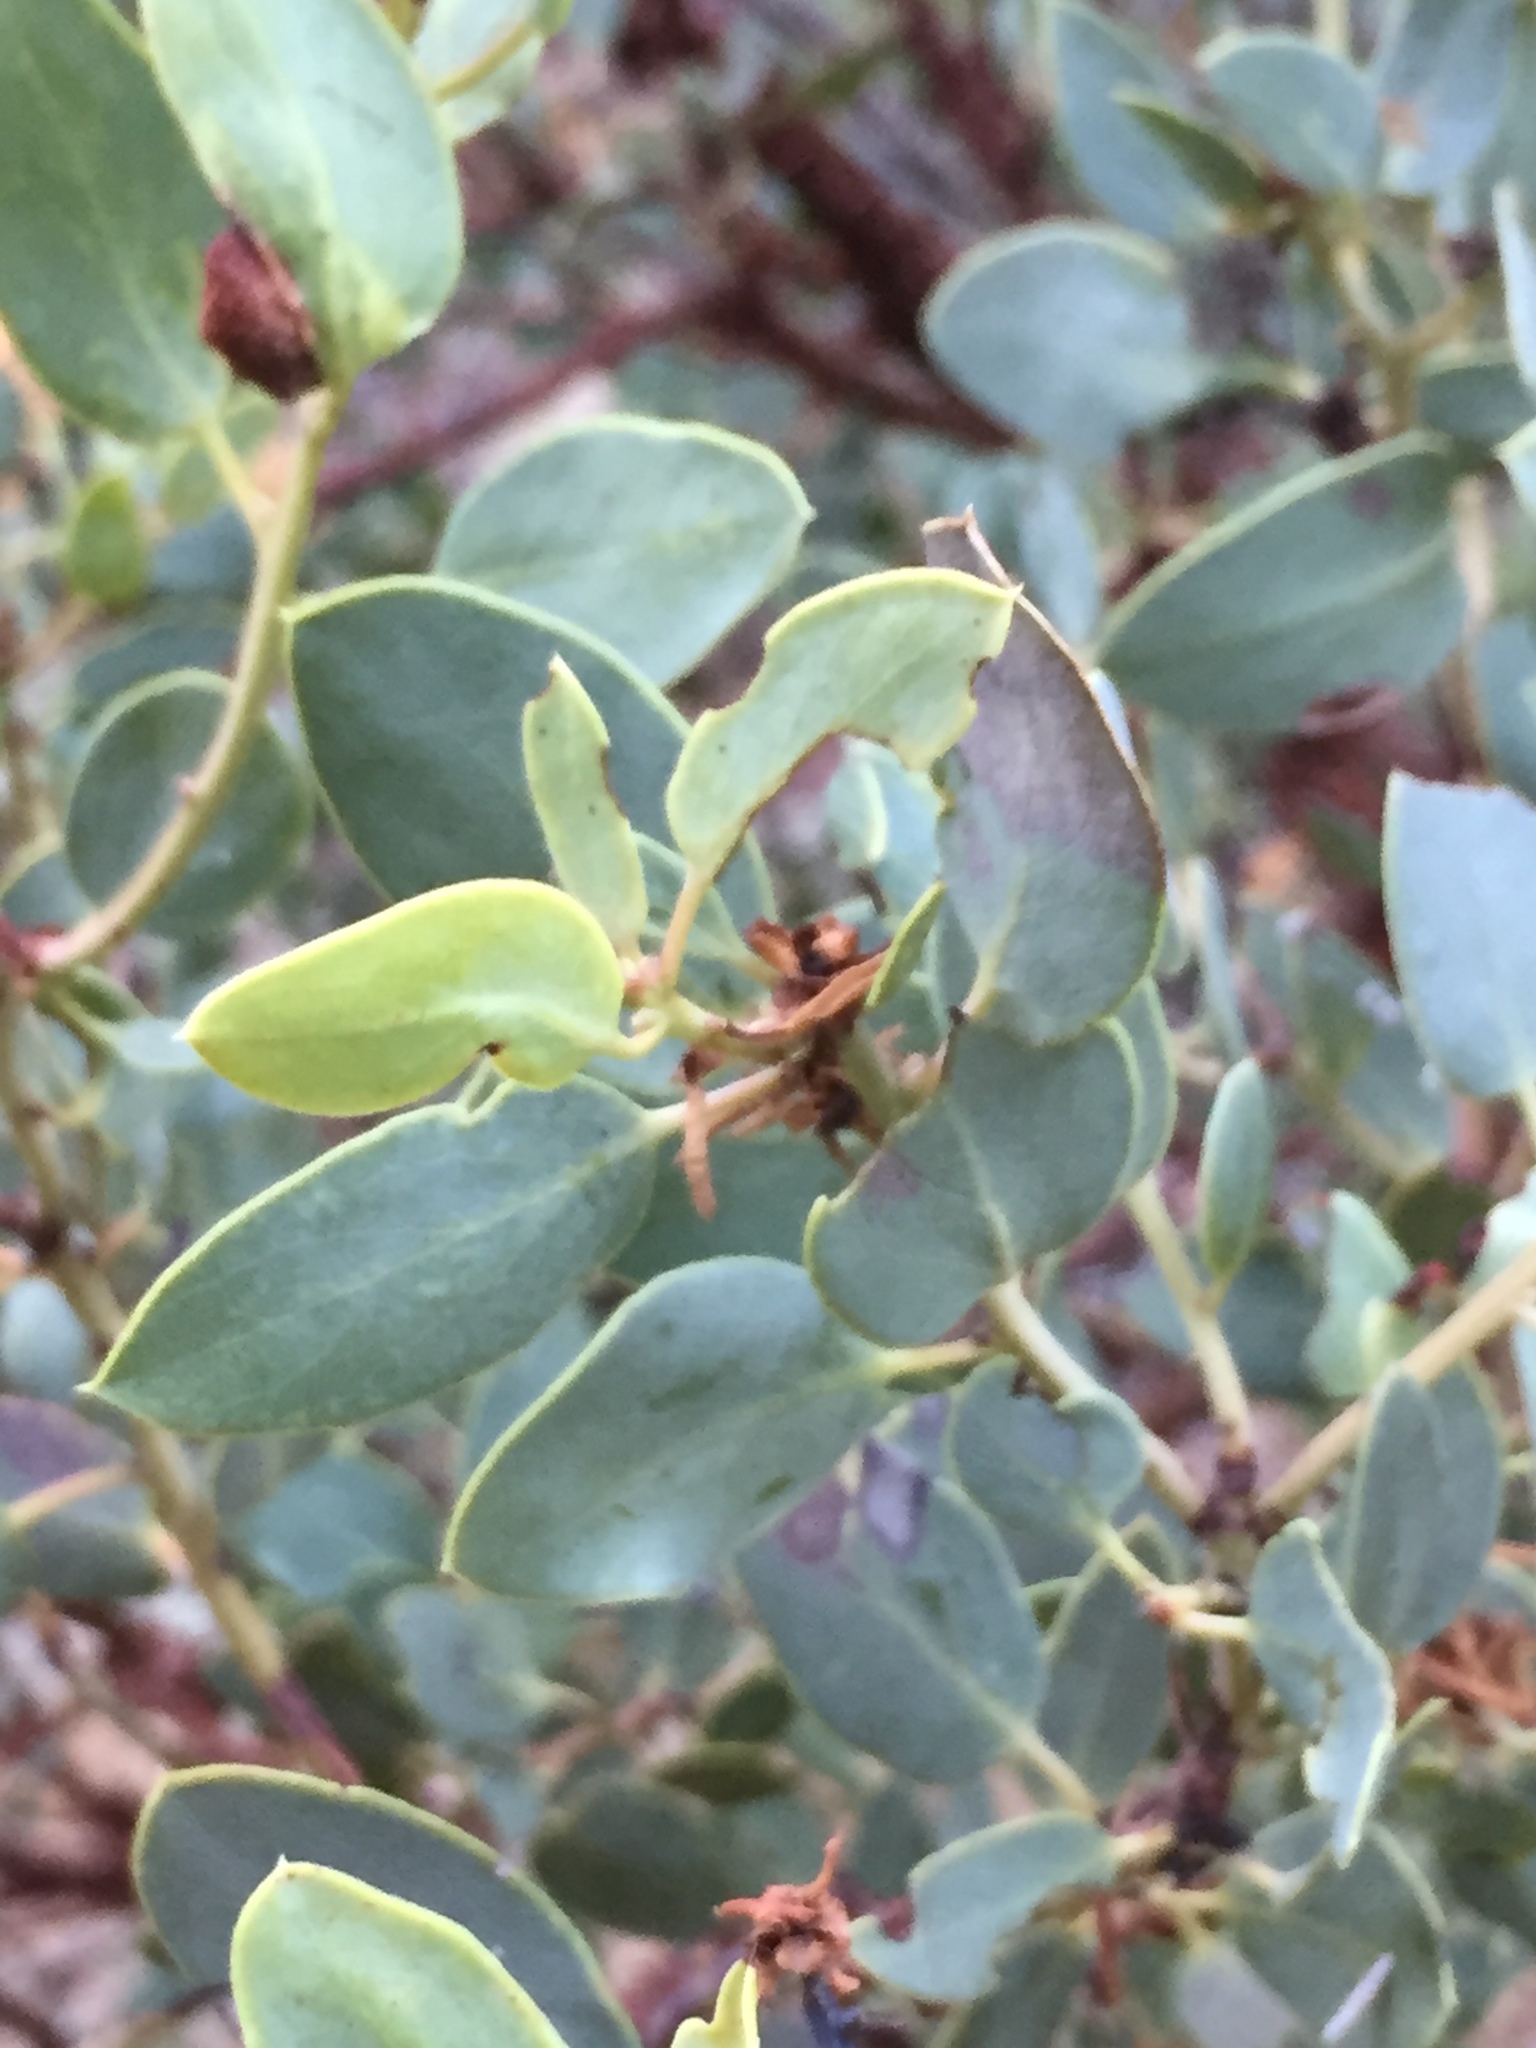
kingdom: Plantae
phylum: Tracheophyta
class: Magnoliopsida
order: Ericales
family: Ericaceae
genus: Arctostaphylos
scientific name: Arctostaphylos glauca
